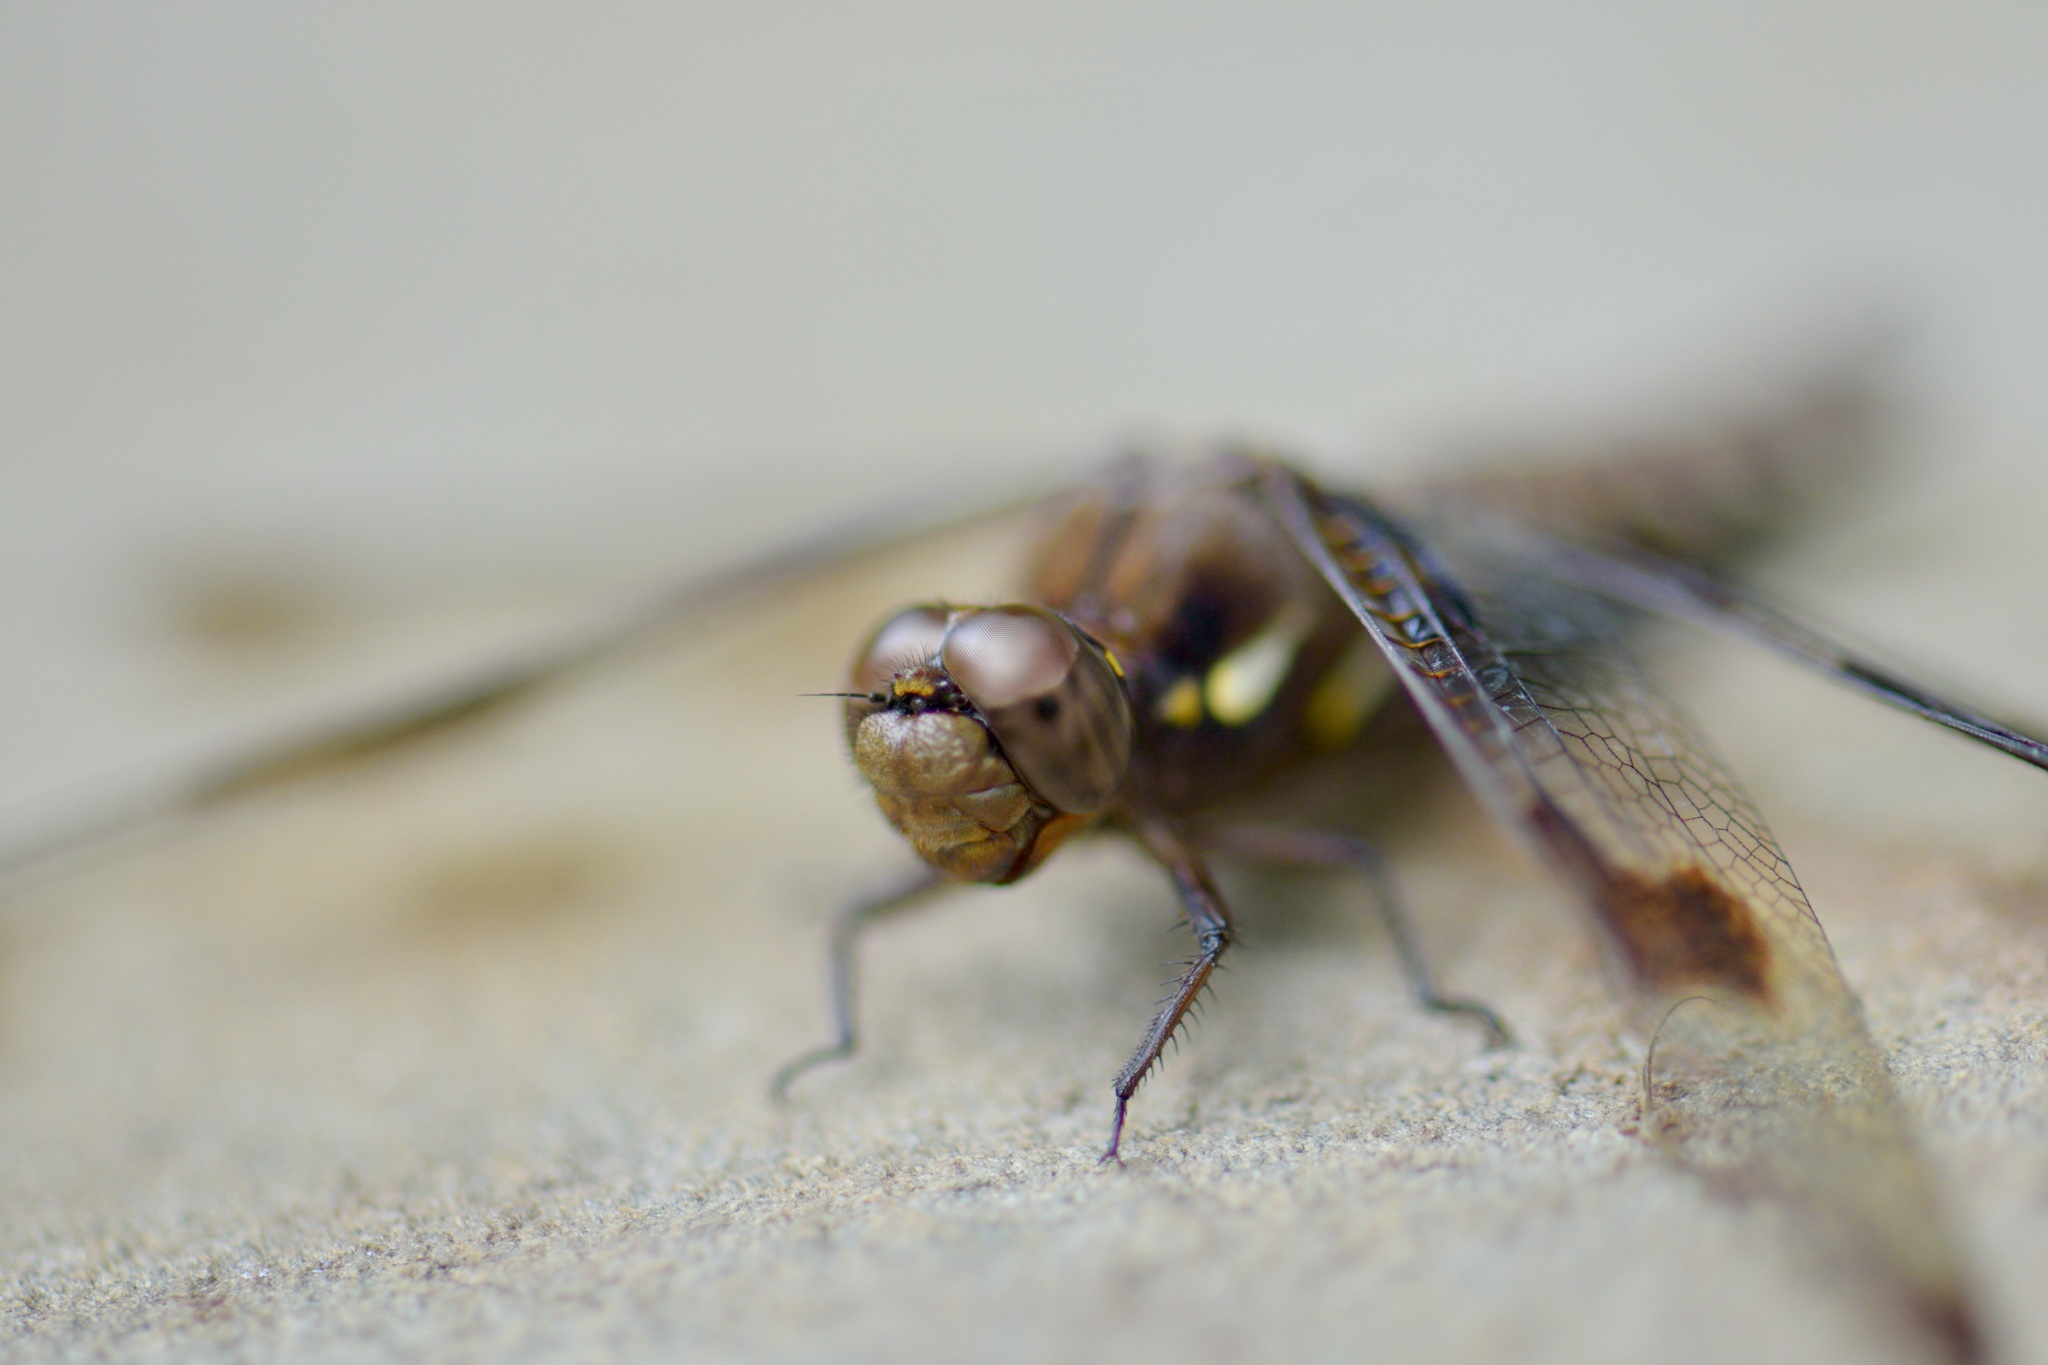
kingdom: Animalia
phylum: Arthropoda
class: Insecta
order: Odonata
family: Libellulidae
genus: Plathemis
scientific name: Plathemis lydia
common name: Common whitetail
